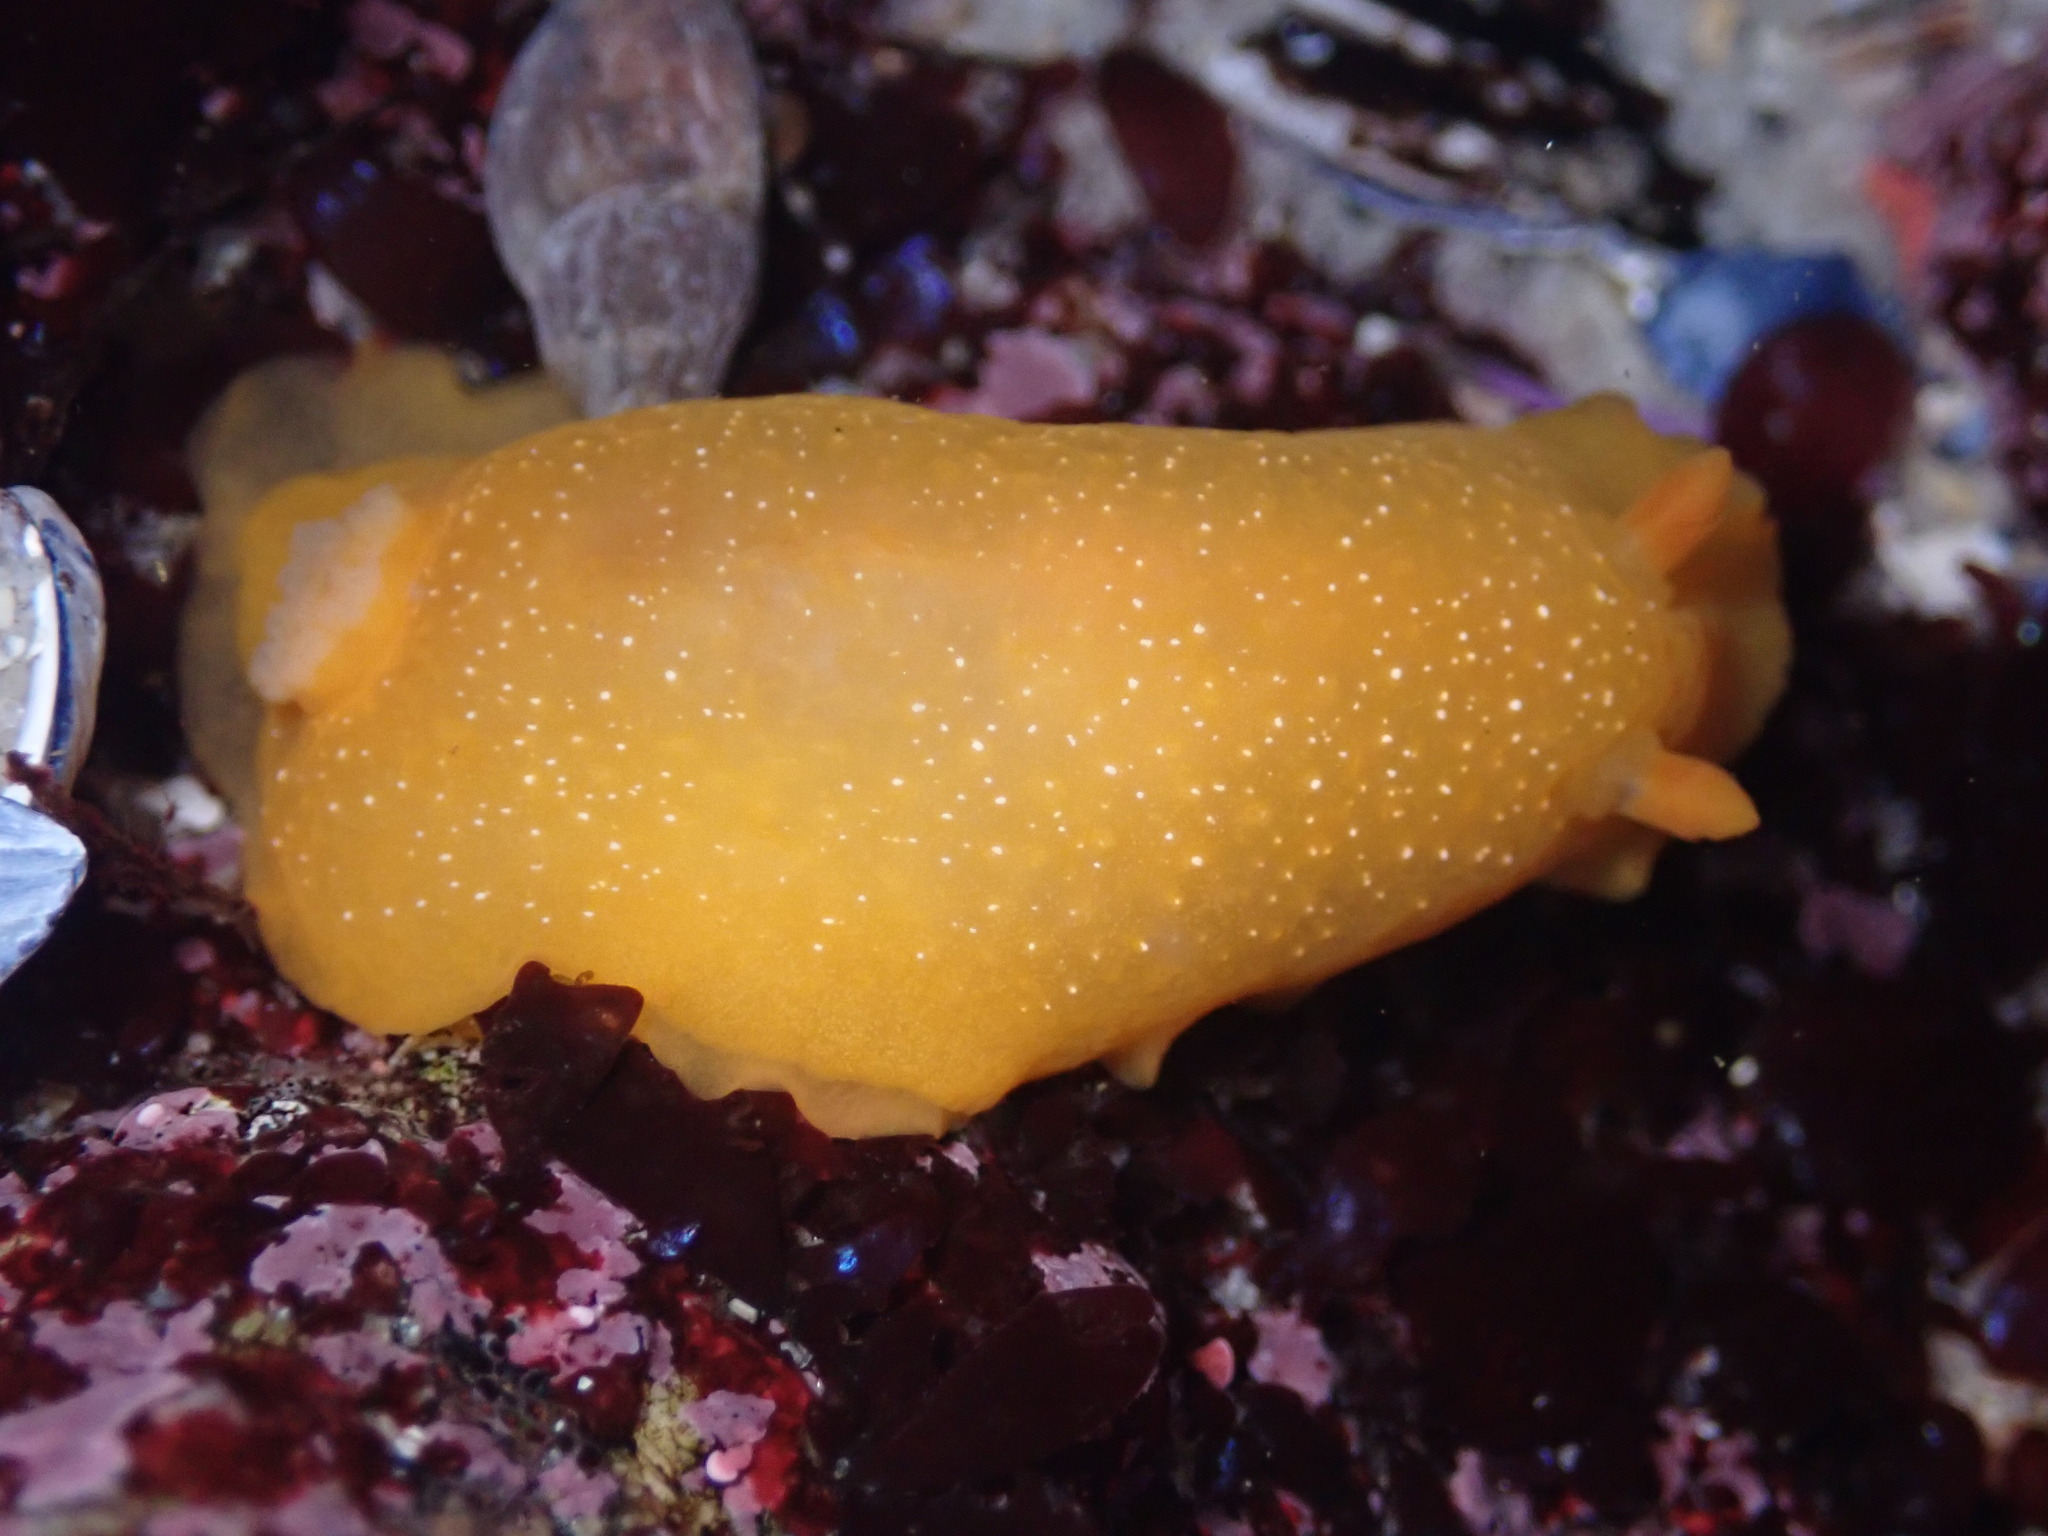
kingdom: Animalia
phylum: Mollusca
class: Gastropoda
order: Nudibranchia
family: Dendrodorididae
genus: Doriopsilla
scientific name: Doriopsilla fulva
